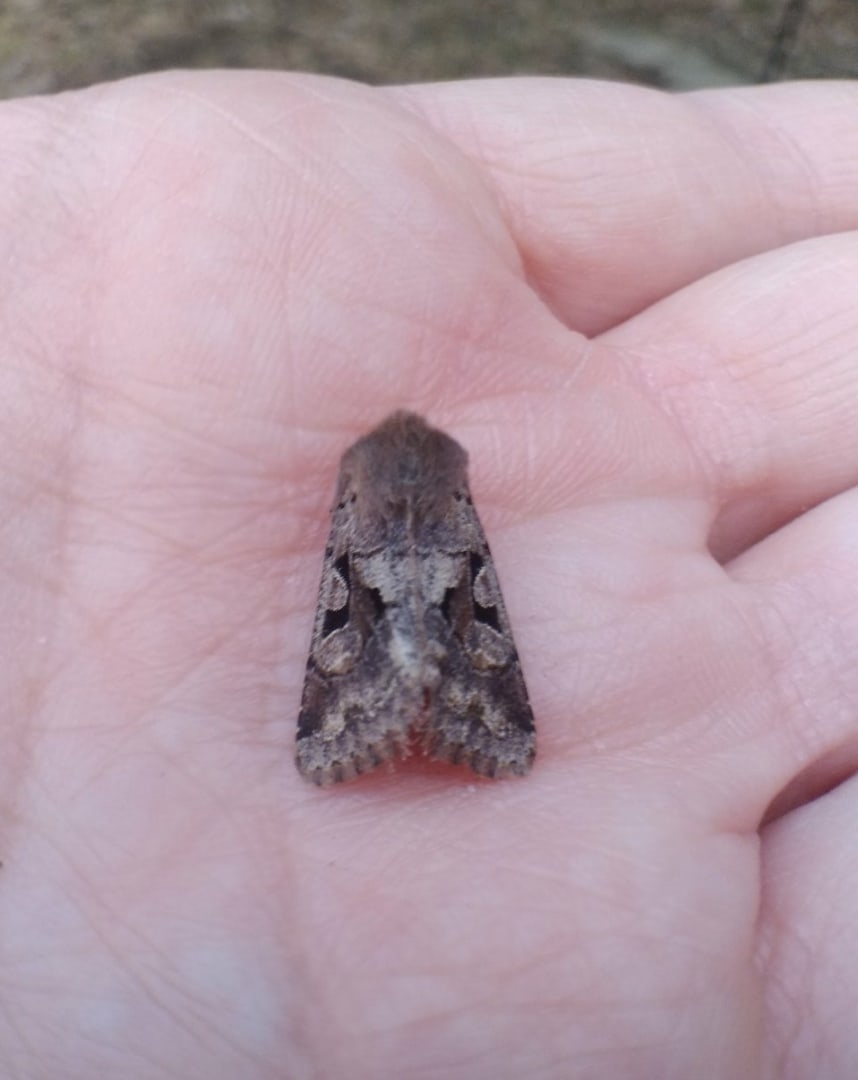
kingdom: Animalia
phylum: Arthropoda
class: Insecta
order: Lepidoptera
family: Noctuidae
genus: Orthosia
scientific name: Orthosia gothica
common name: Hebrew character
